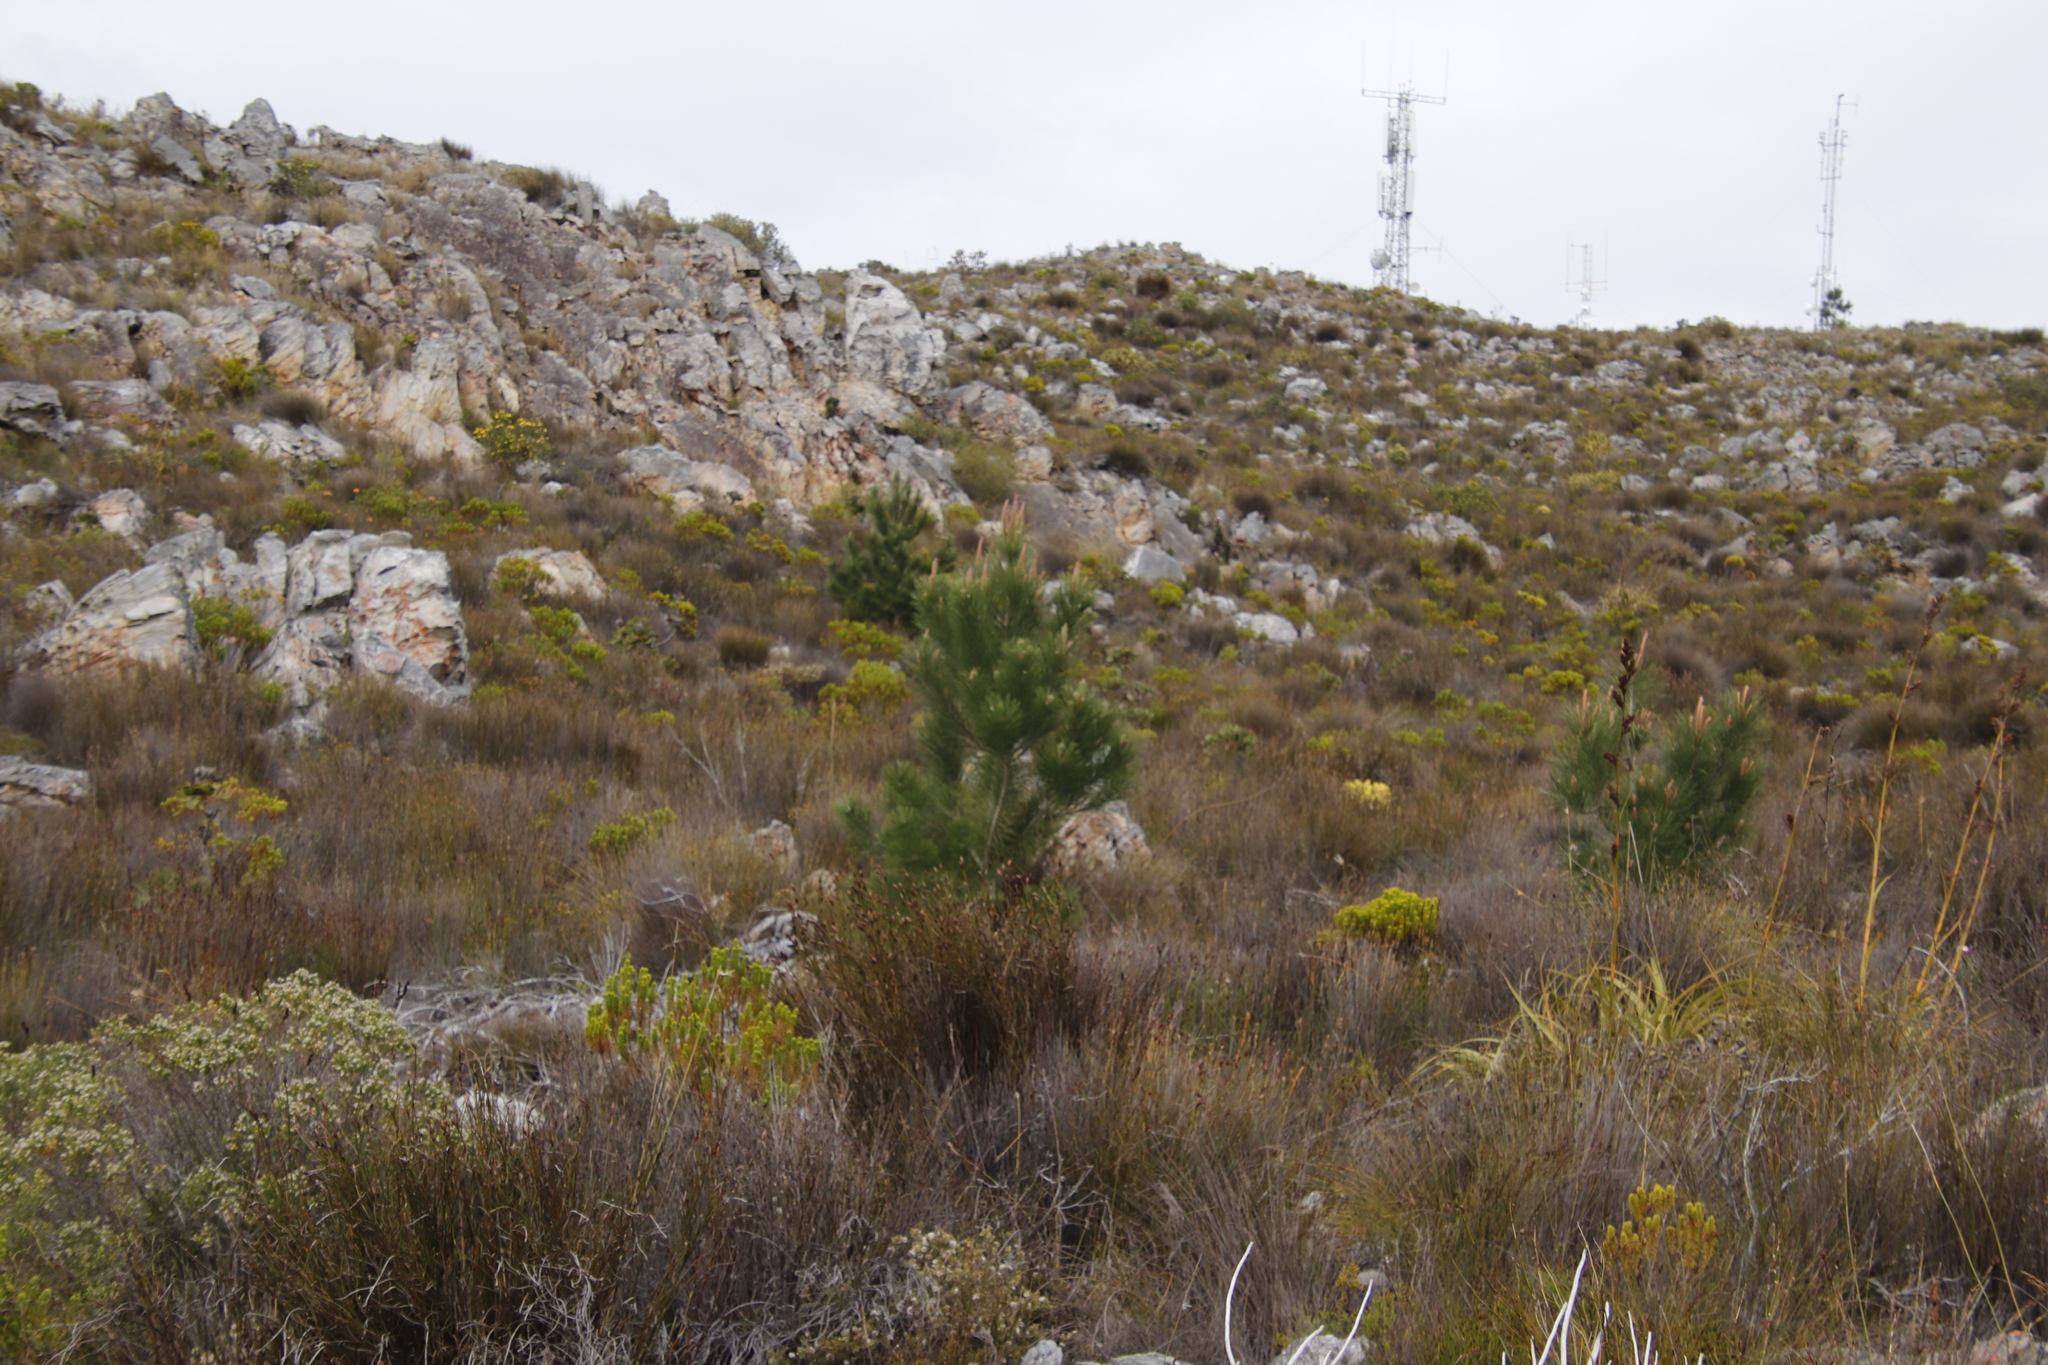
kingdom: Plantae
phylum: Tracheophyta
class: Pinopsida
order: Pinales
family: Pinaceae
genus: Pinus
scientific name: Pinus pinaster
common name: Maritime pine
